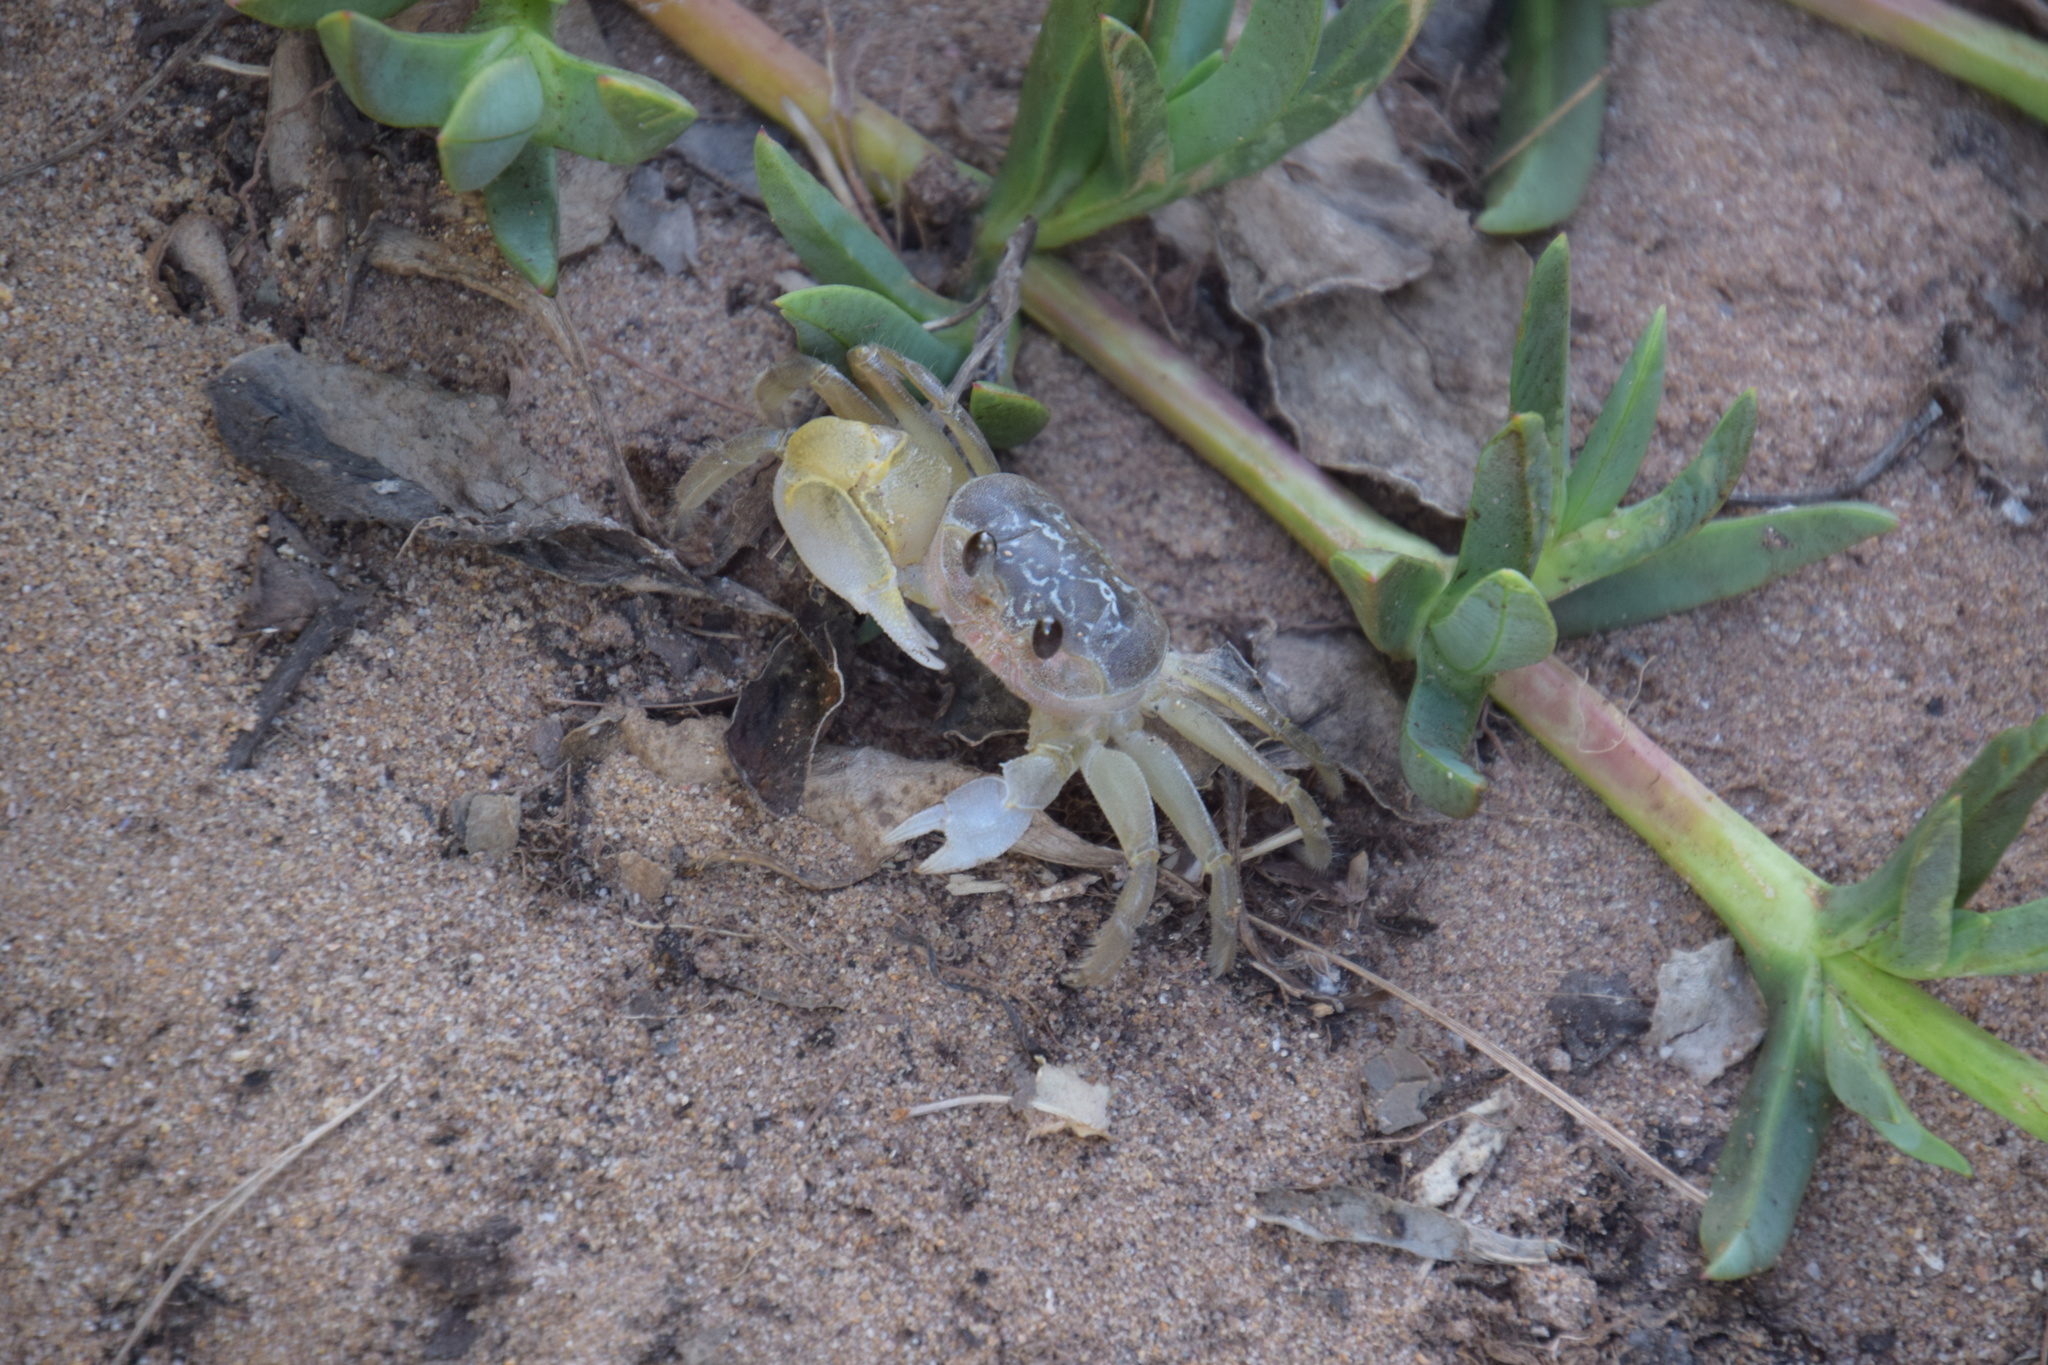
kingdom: Animalia
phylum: Arthropoda
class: Malacostraca
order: Decapoda
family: Ocypodidae
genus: Ocypode
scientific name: Ocypode cordimana
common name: Smooth-eyed ghost crab
